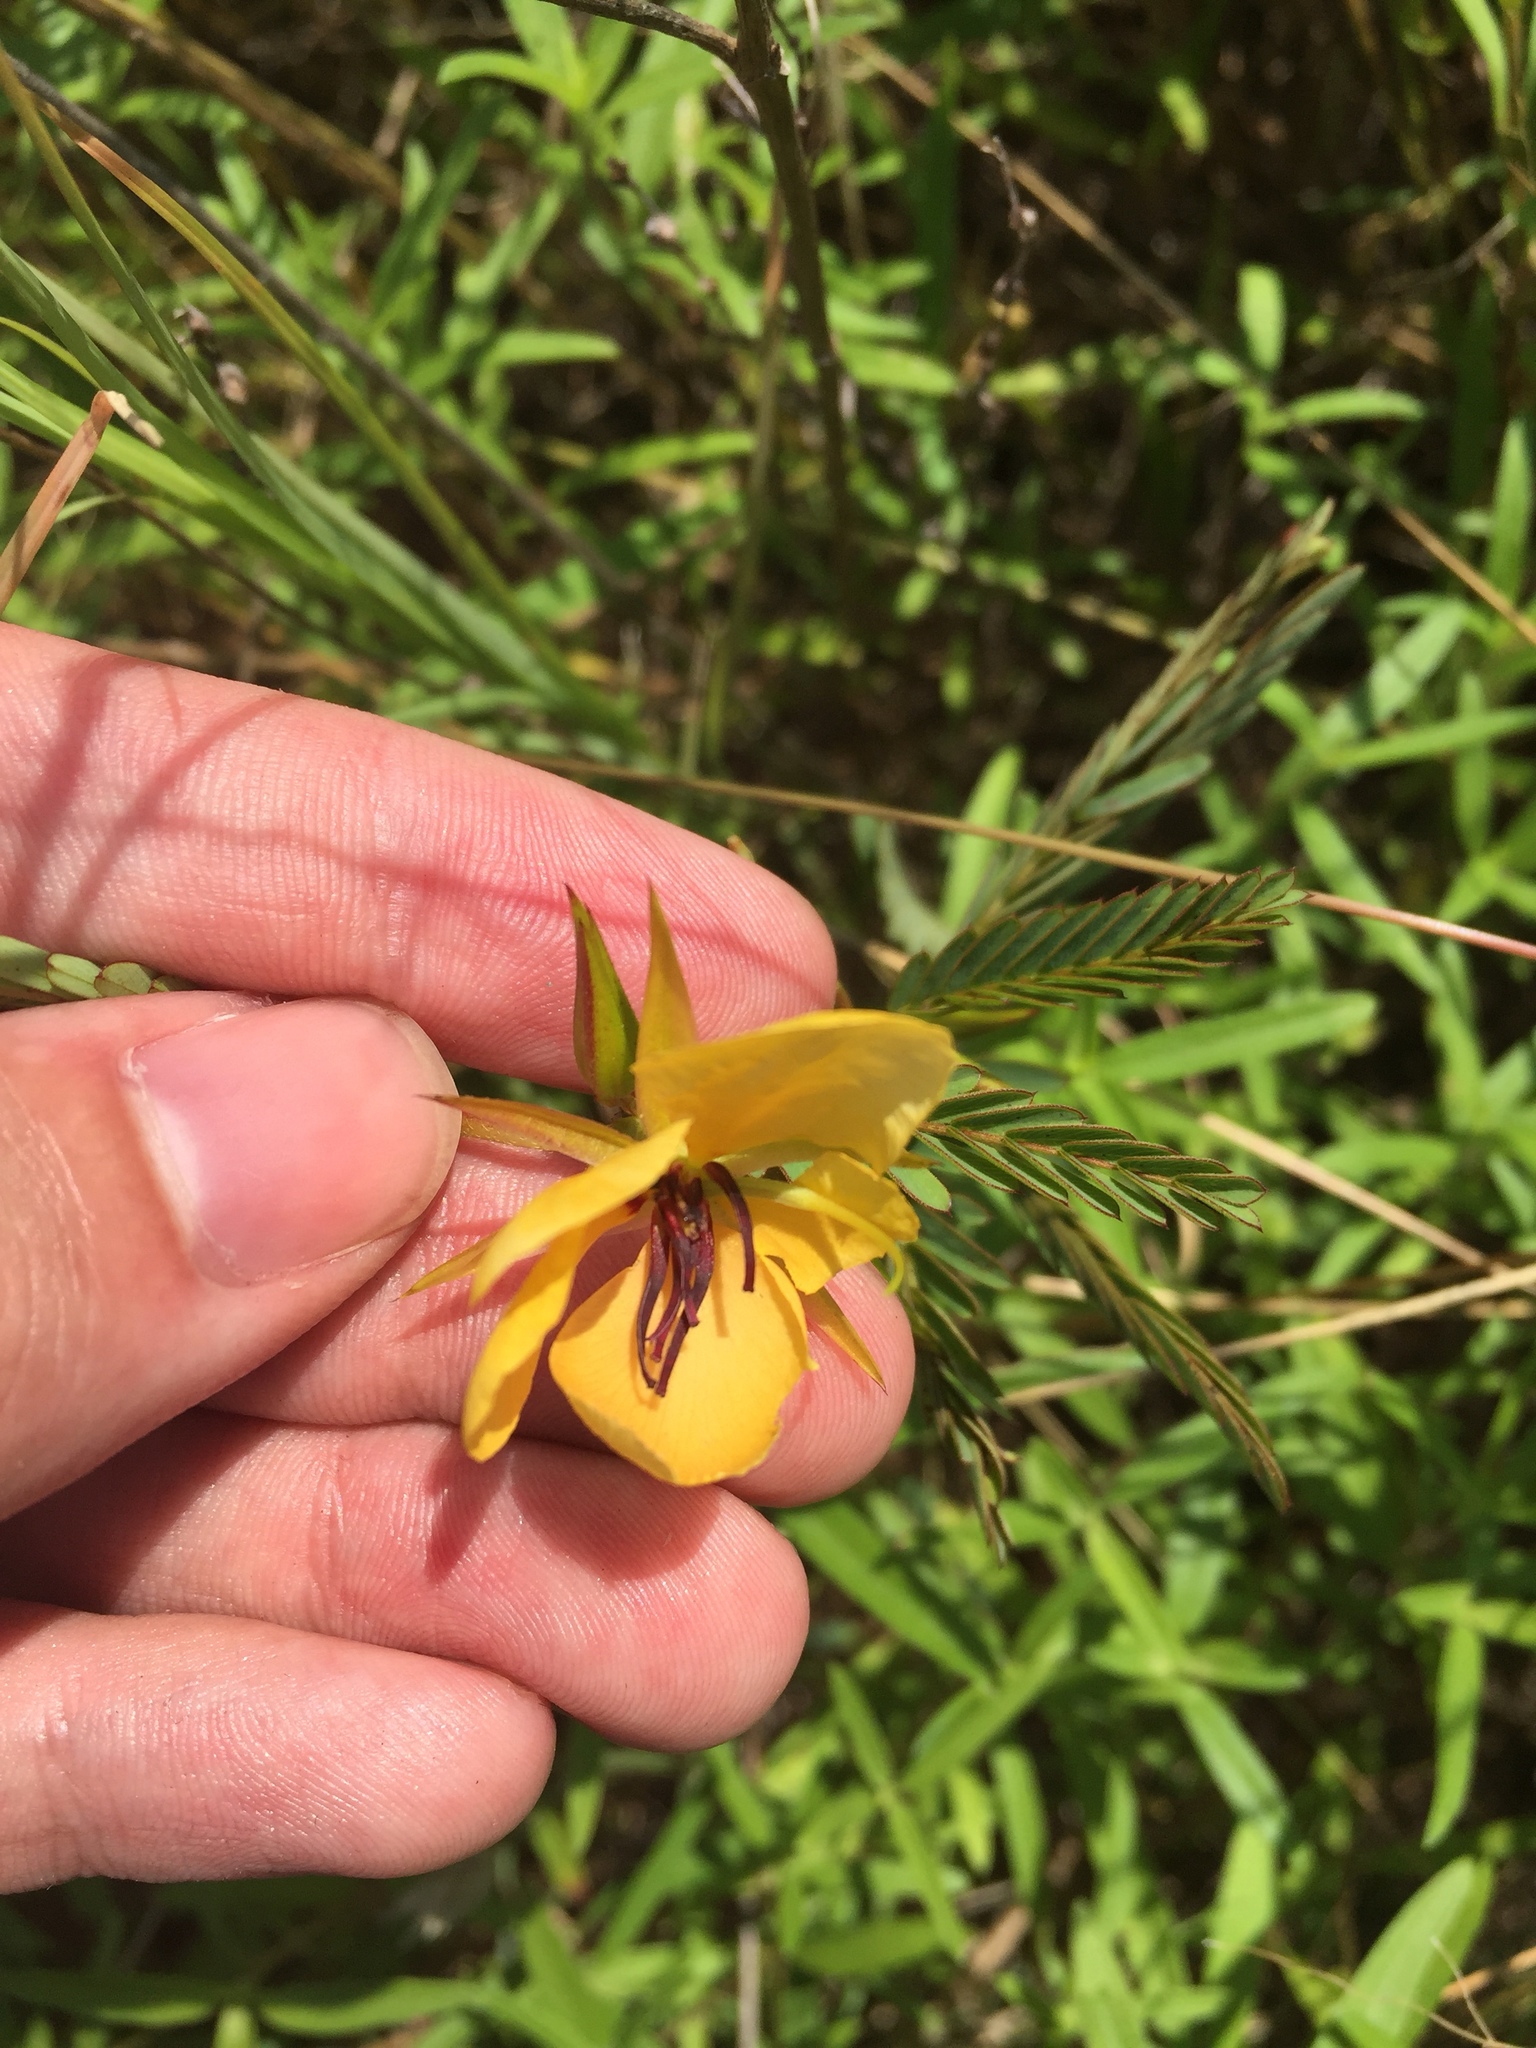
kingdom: Plantae
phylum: Tracheophyta
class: Magnoliopsida
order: Fabales
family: Fabaceae
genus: Chamaecrista
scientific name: Chamaecrista fasciculata
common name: Golden cassia
